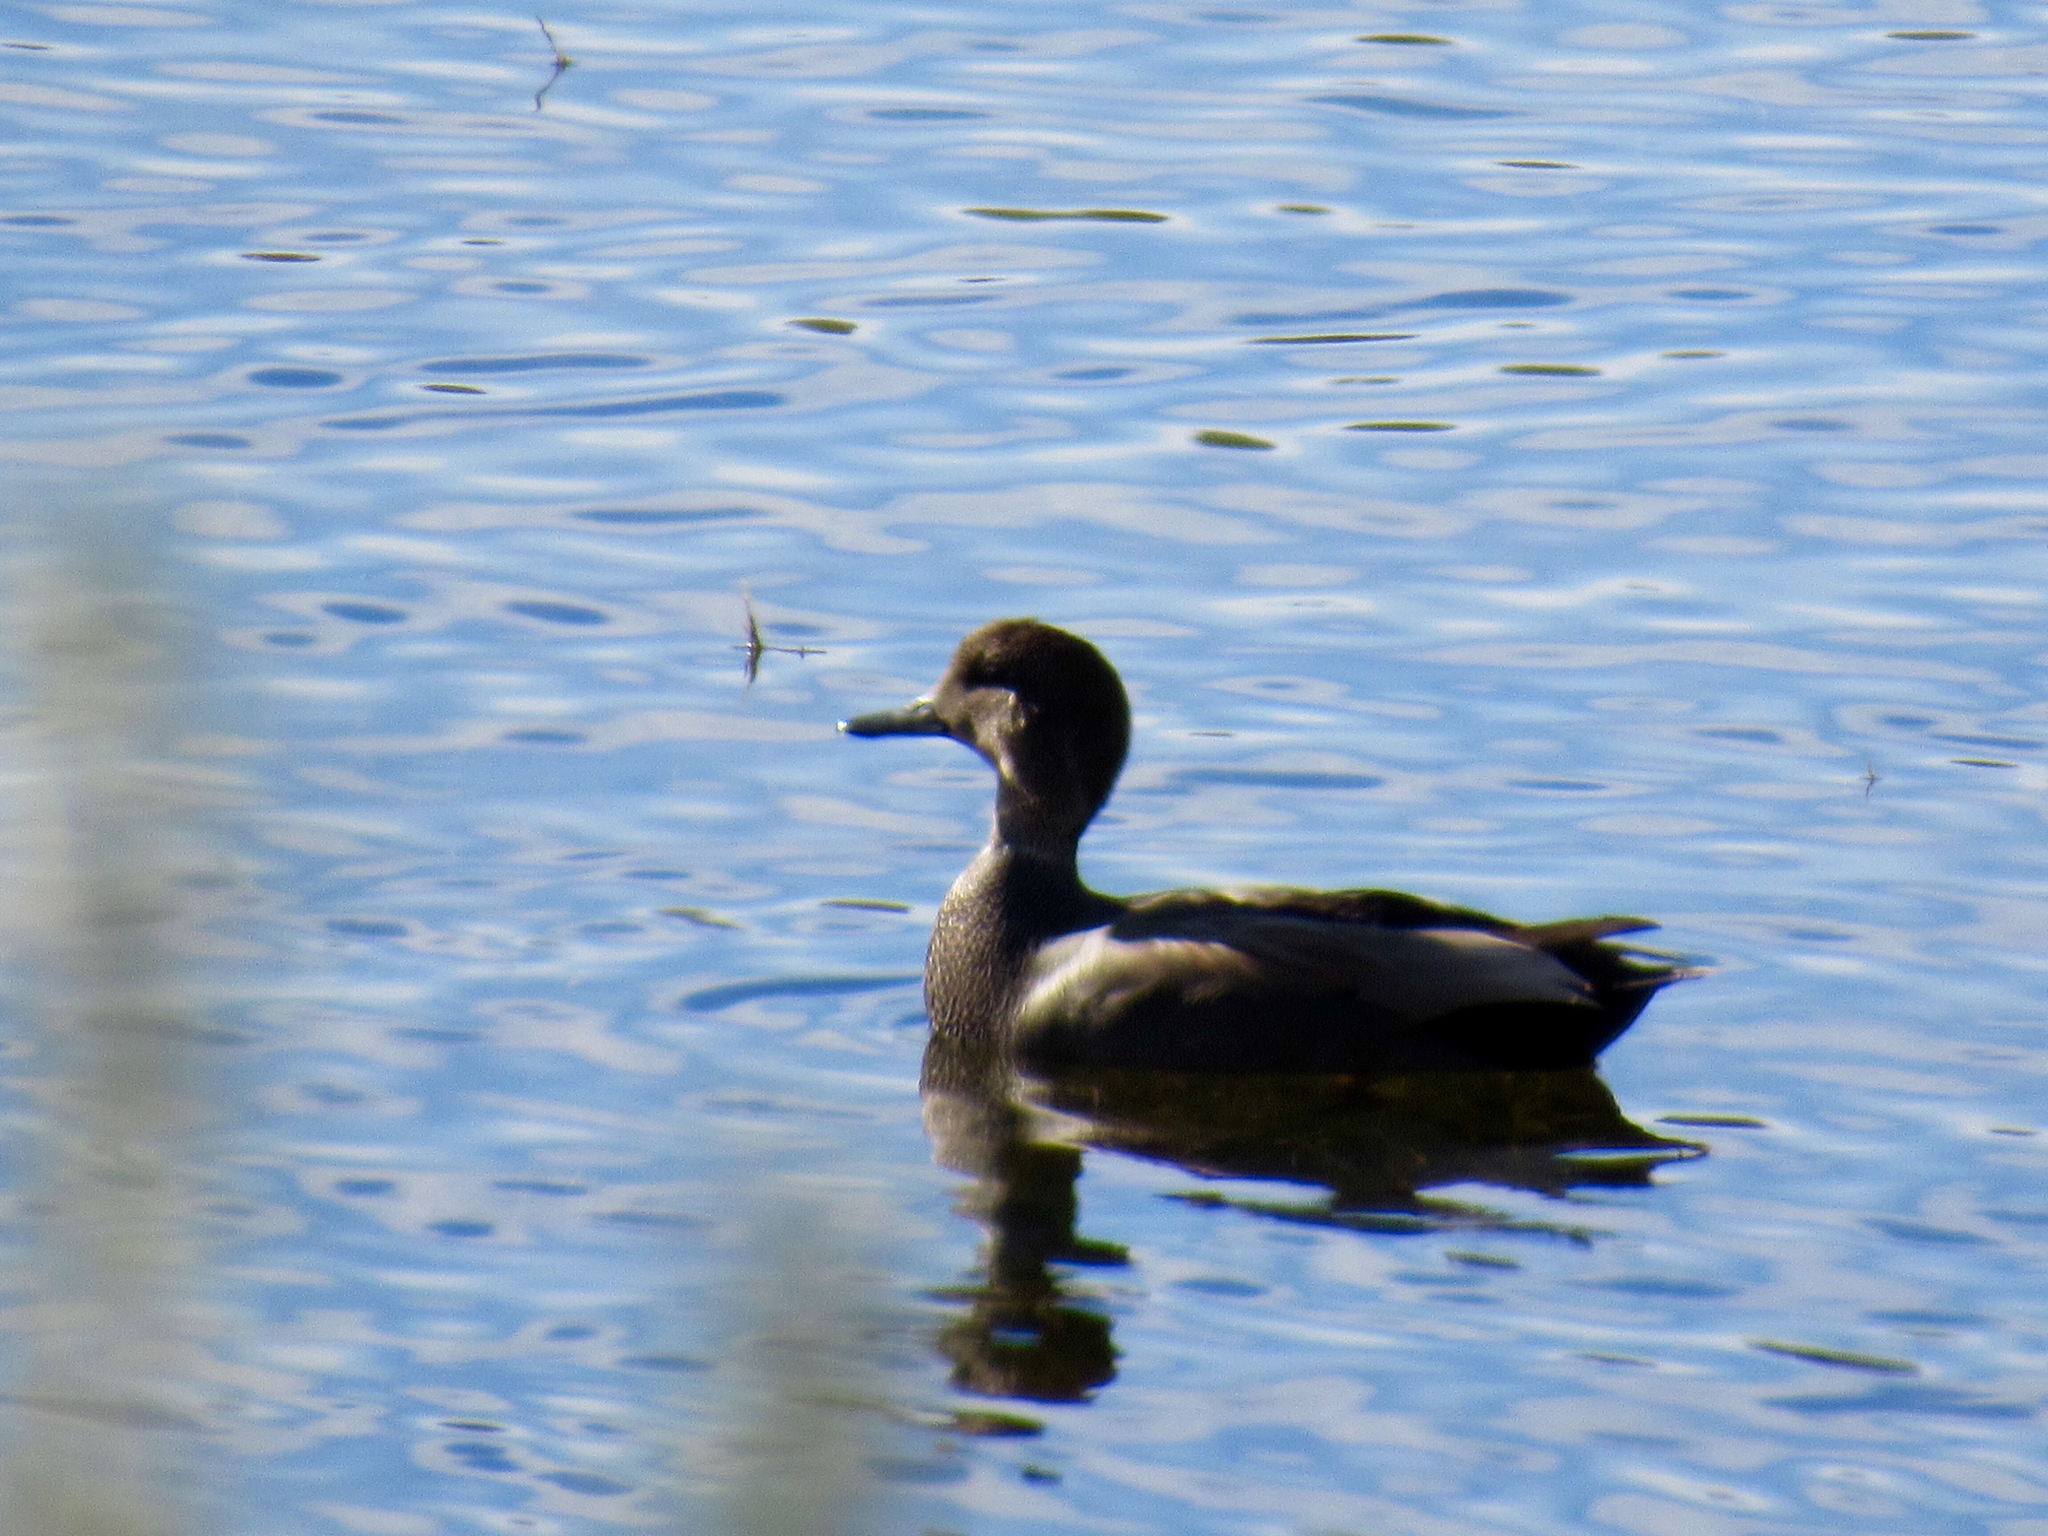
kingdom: Animalia
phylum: Chordata
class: Aves
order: Anseriformes
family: Anatidae
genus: Mareca
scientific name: Mareca strepera
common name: Gadwall
